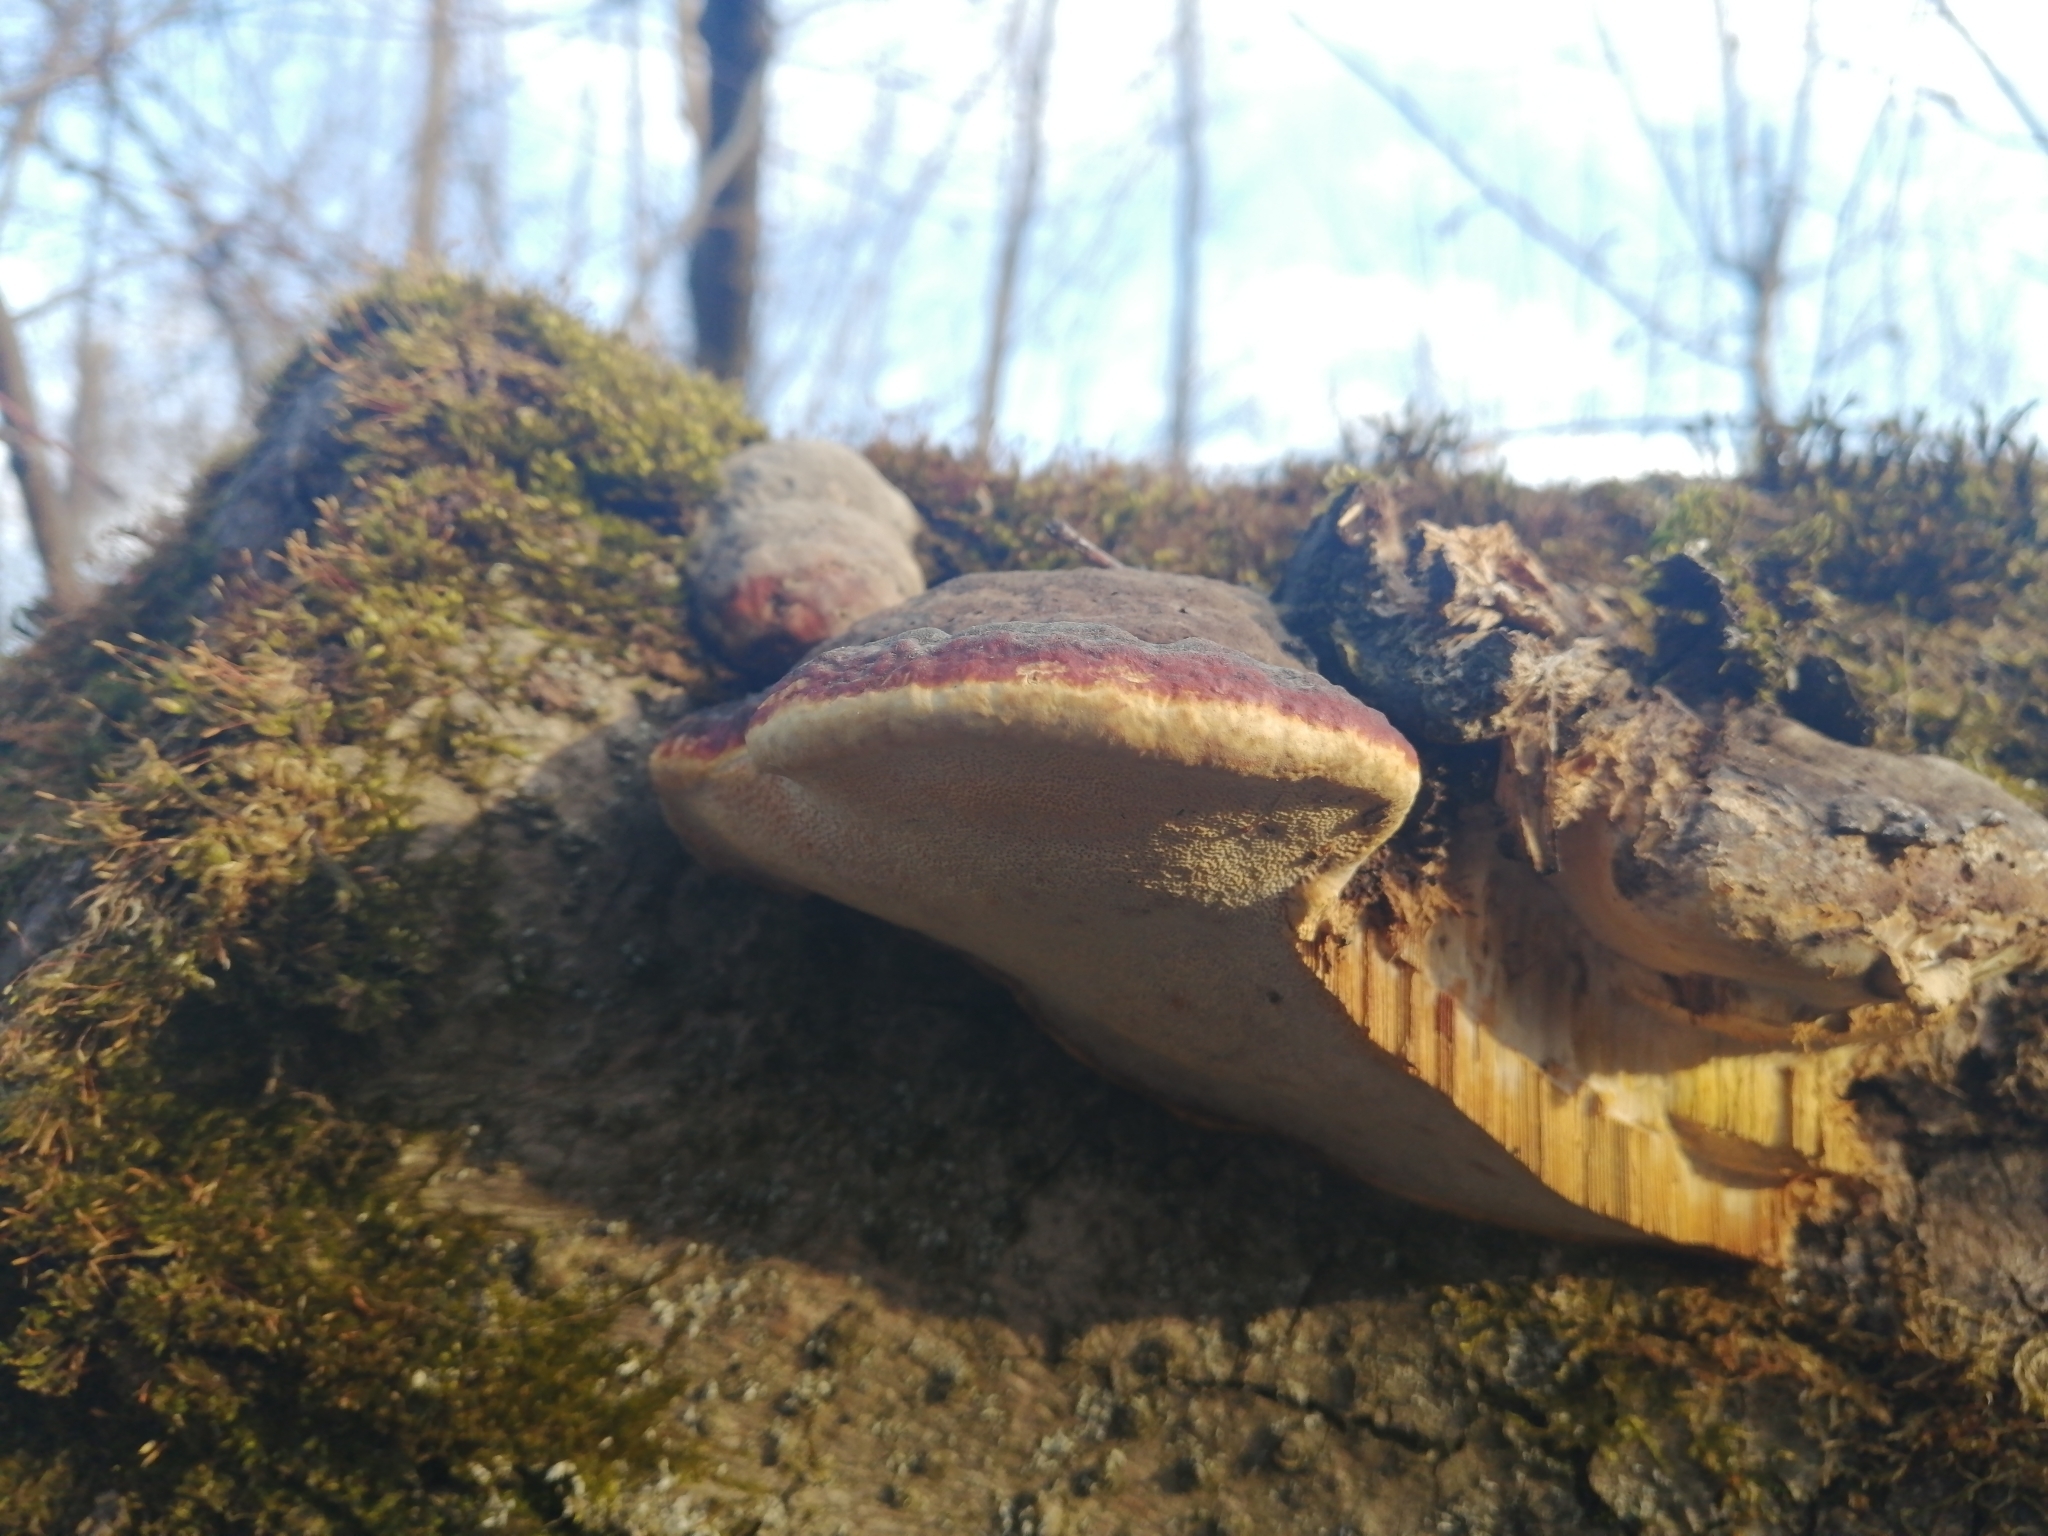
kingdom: Fungi
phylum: Basidiomycota
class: Agaricomycetes
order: Polyporales
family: Fomitopsidaceae
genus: Fomitopsis
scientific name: Fomitopsis pinicola
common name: Red-belted bracket
